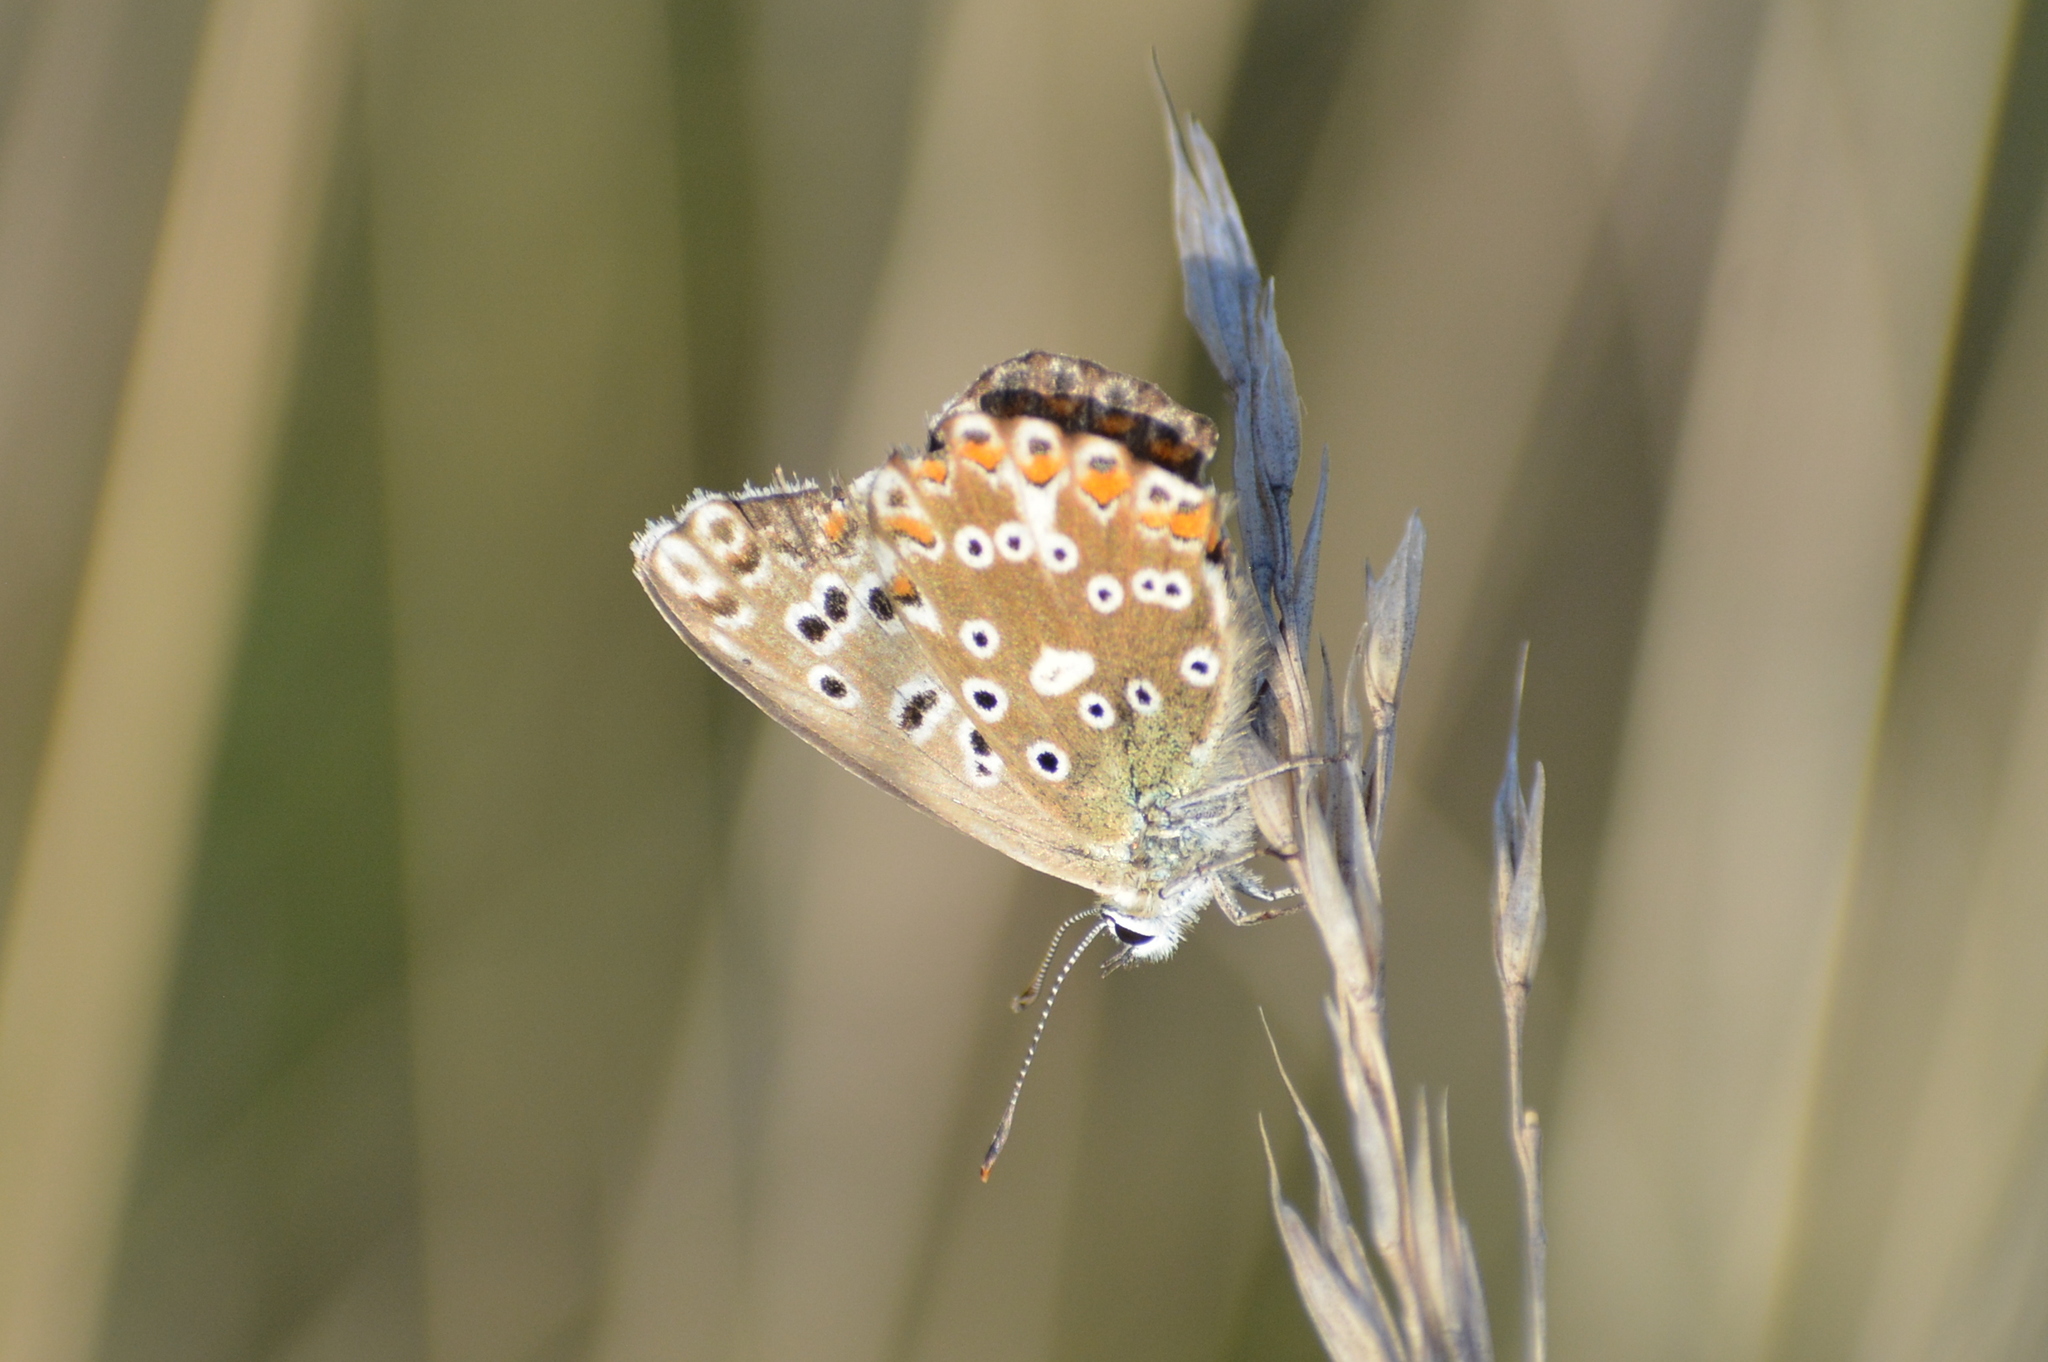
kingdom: Animalia
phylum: Arthropoda
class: Insecta
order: Lepidoptera
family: Lycaenidae
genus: Lysandra
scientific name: Lysandra coridon
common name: Chalkhill blue
